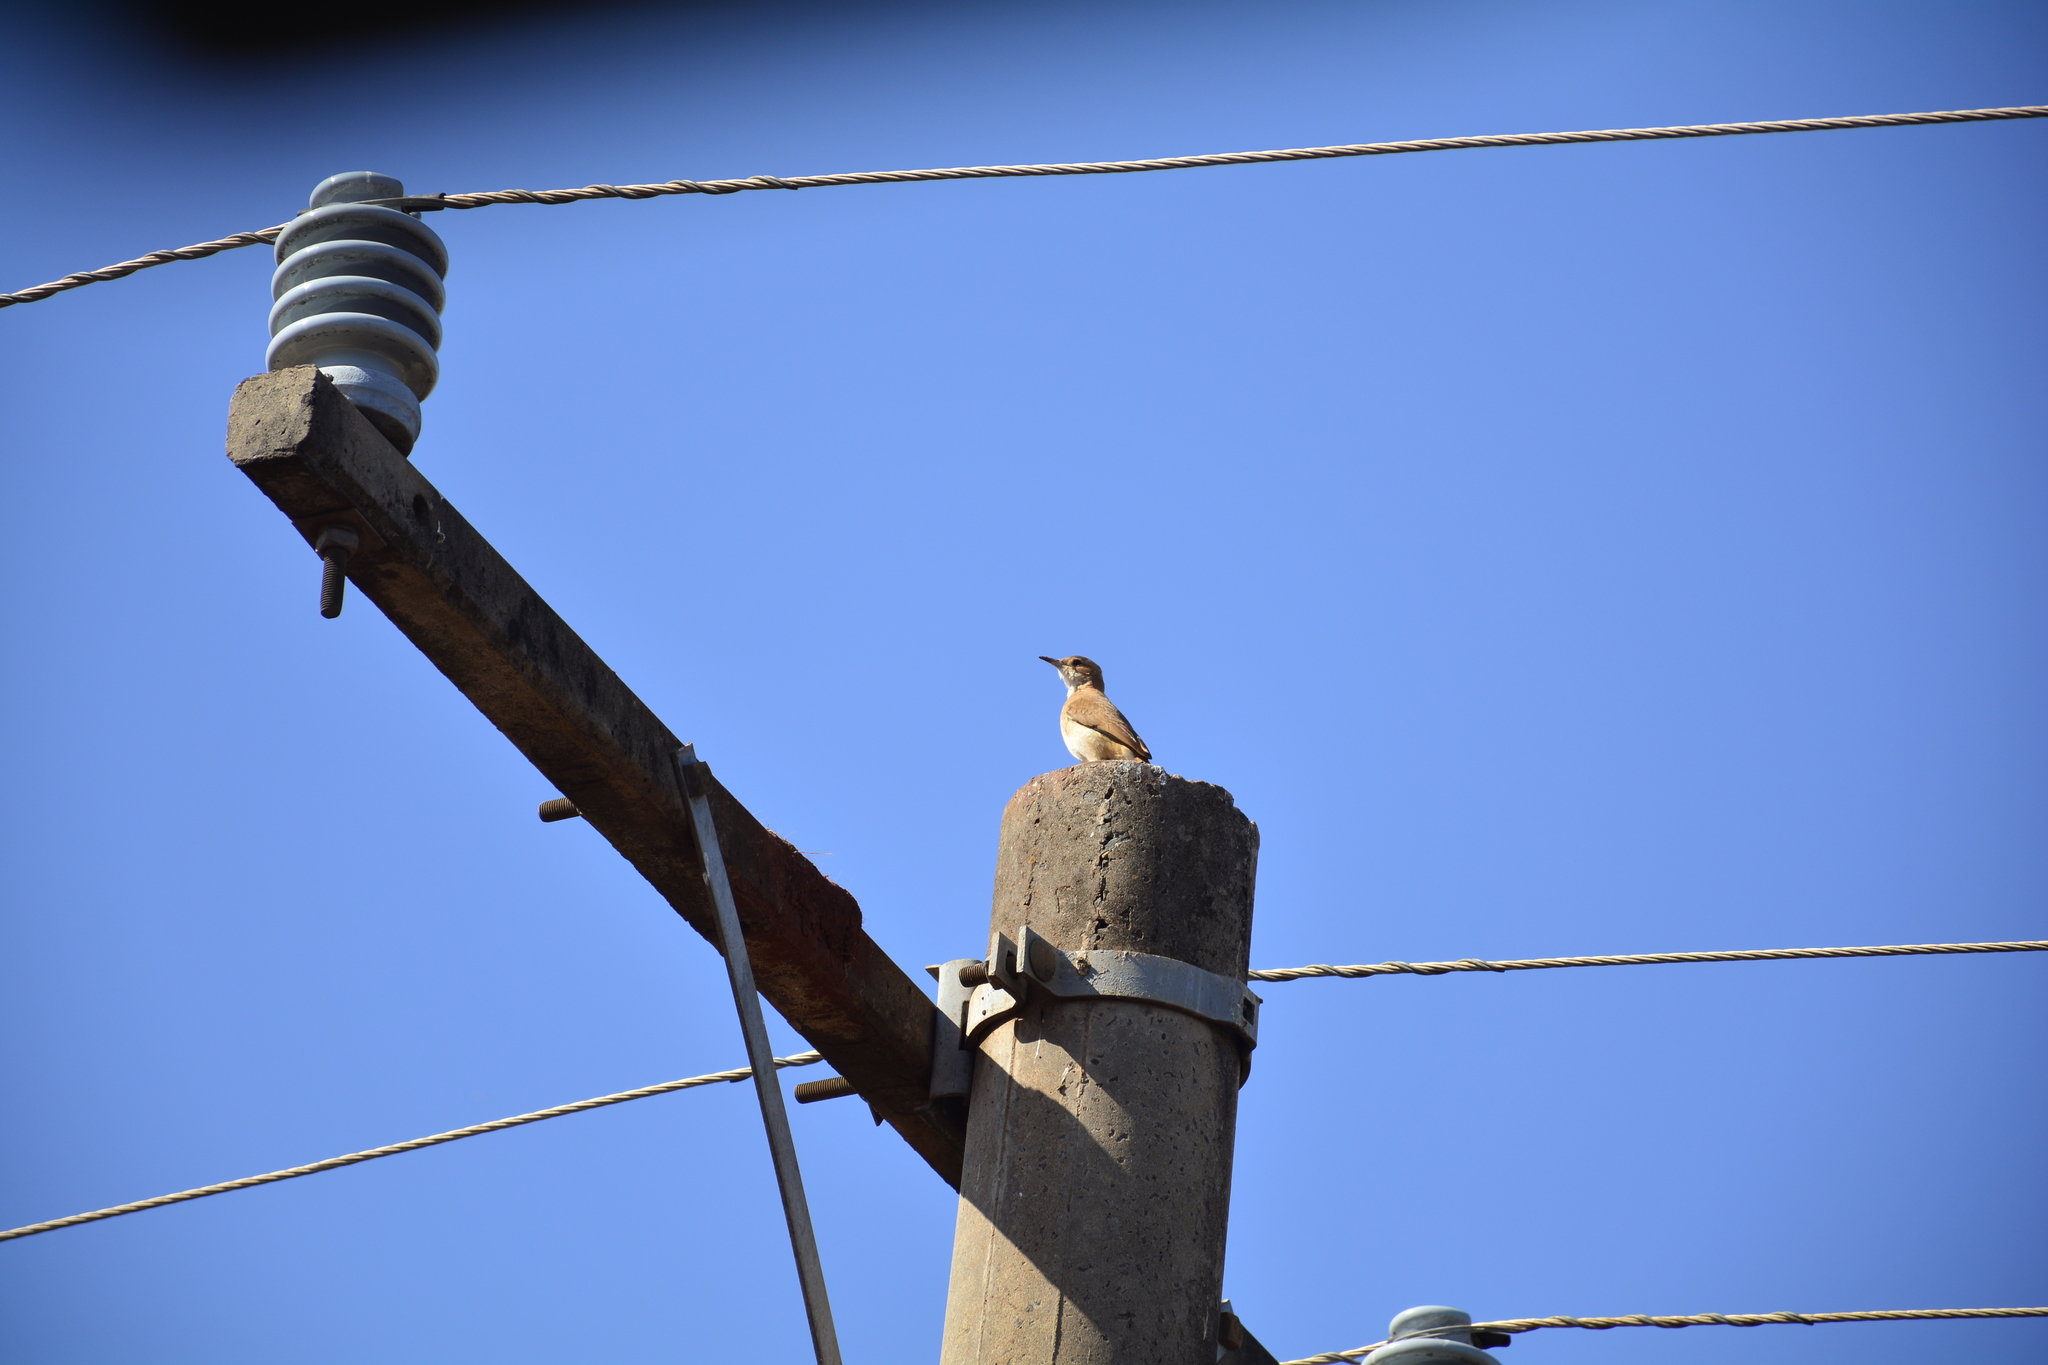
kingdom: Animalia
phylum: Chordata
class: Aves
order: Passeriformes
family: Furnariidae
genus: Furnarius
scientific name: Furnarius rufus
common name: Rufous hornero
